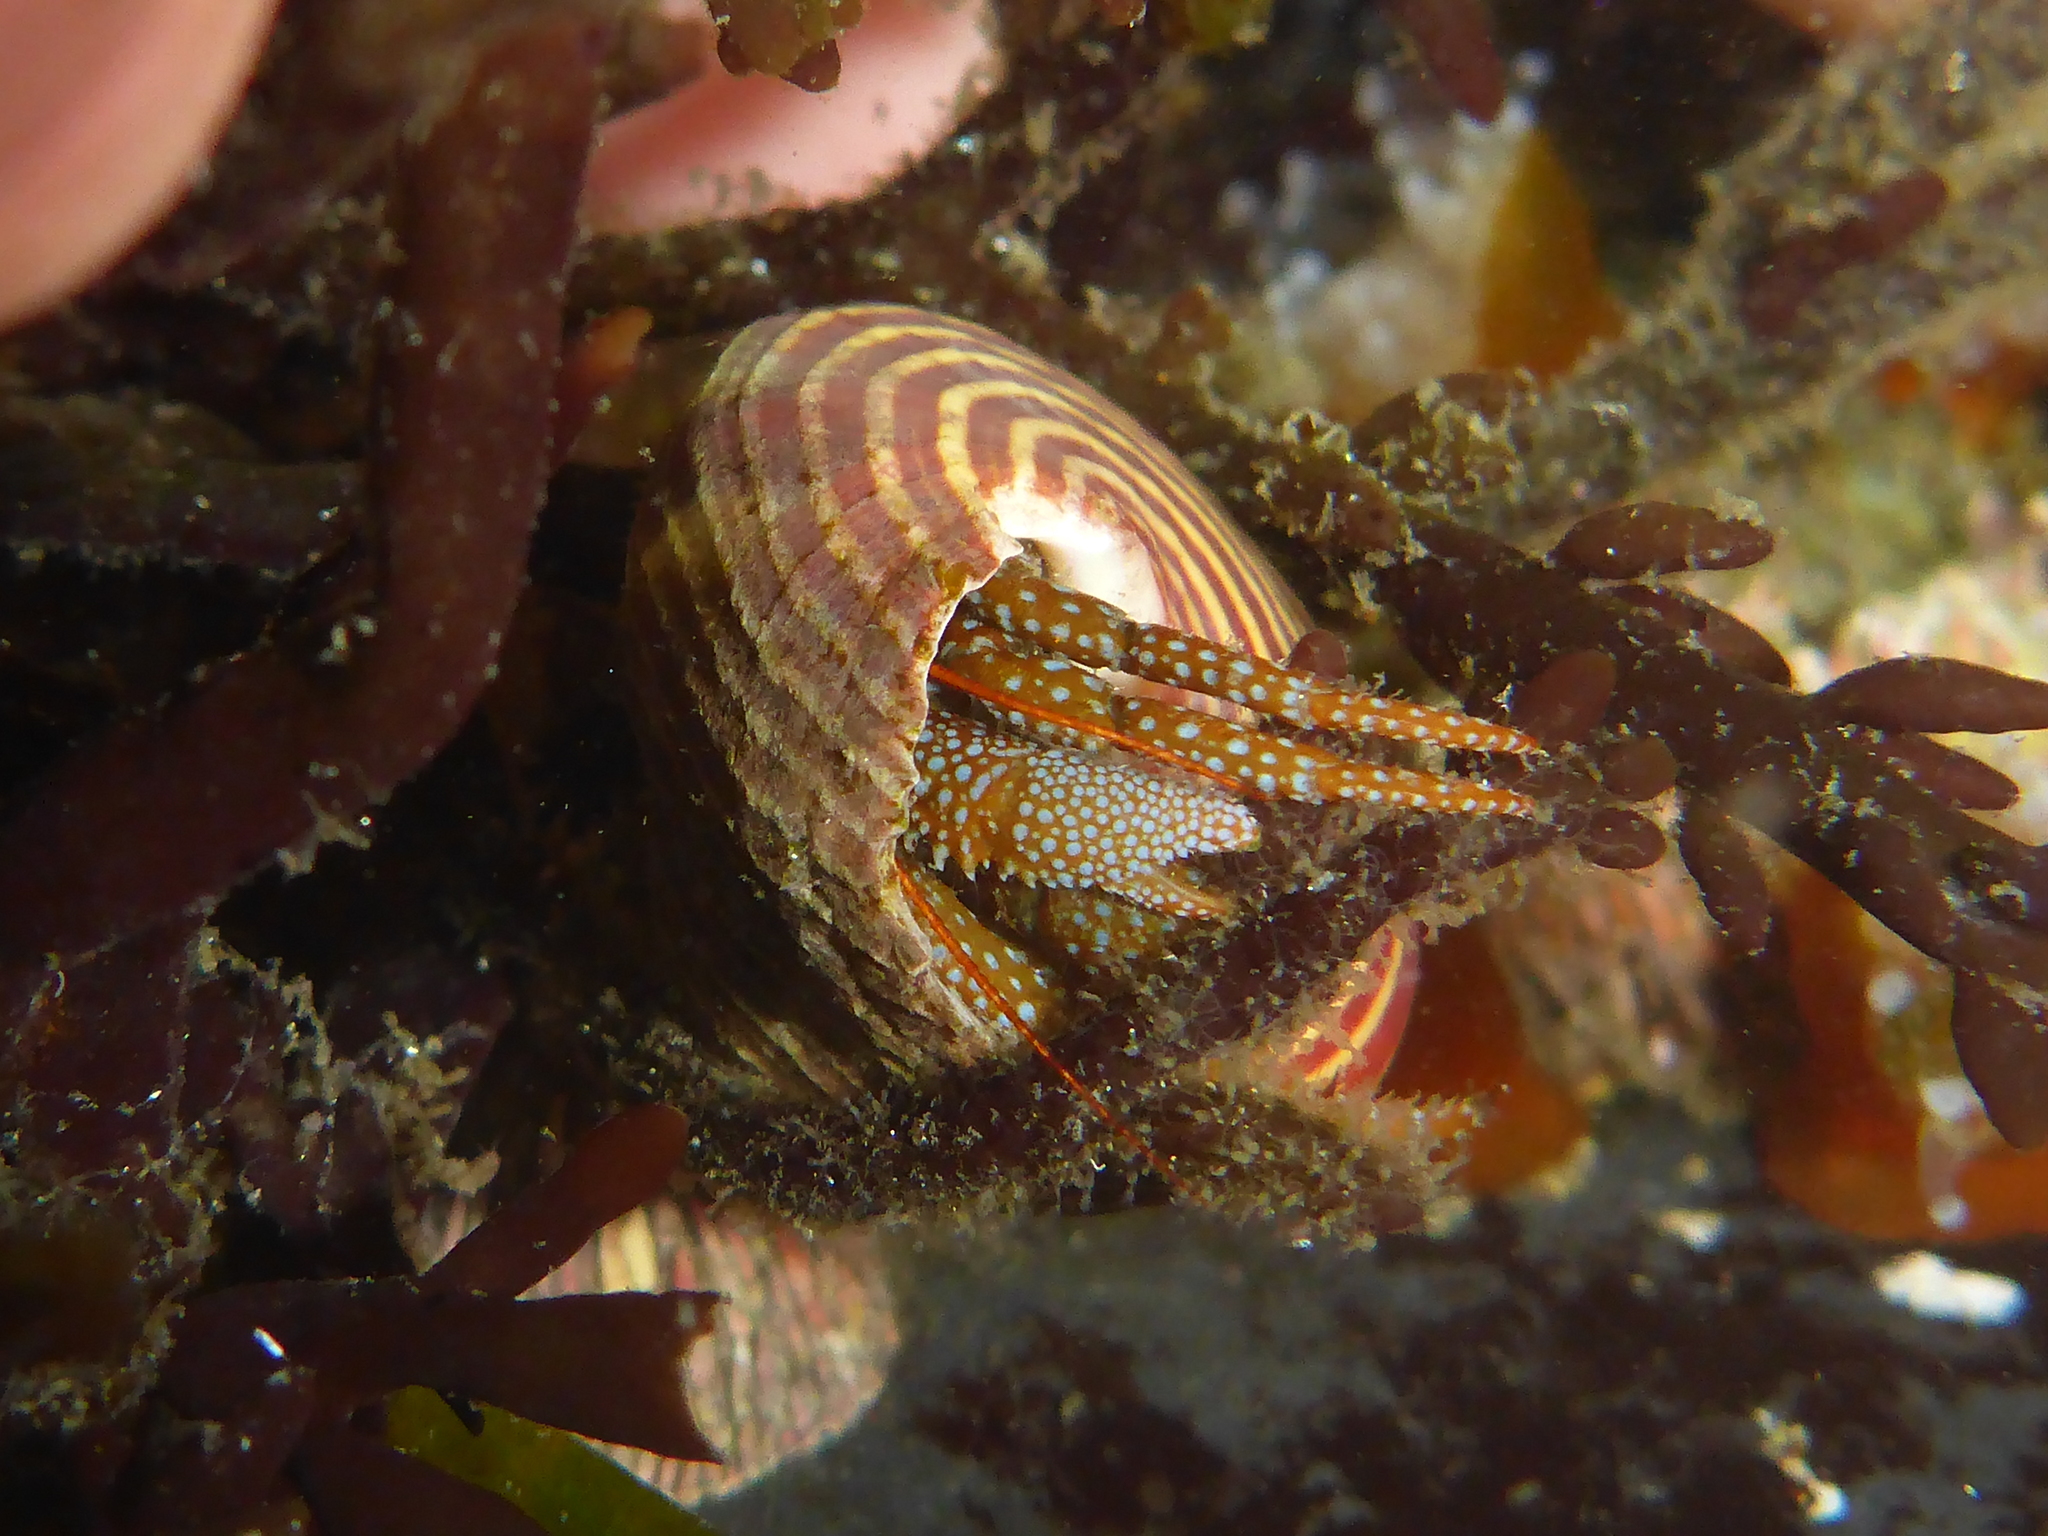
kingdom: Animalia
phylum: Arthropoda
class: Malacostraca
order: Decapoda
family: Paguridae
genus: Pagurus
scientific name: Pagurus granosimanus
